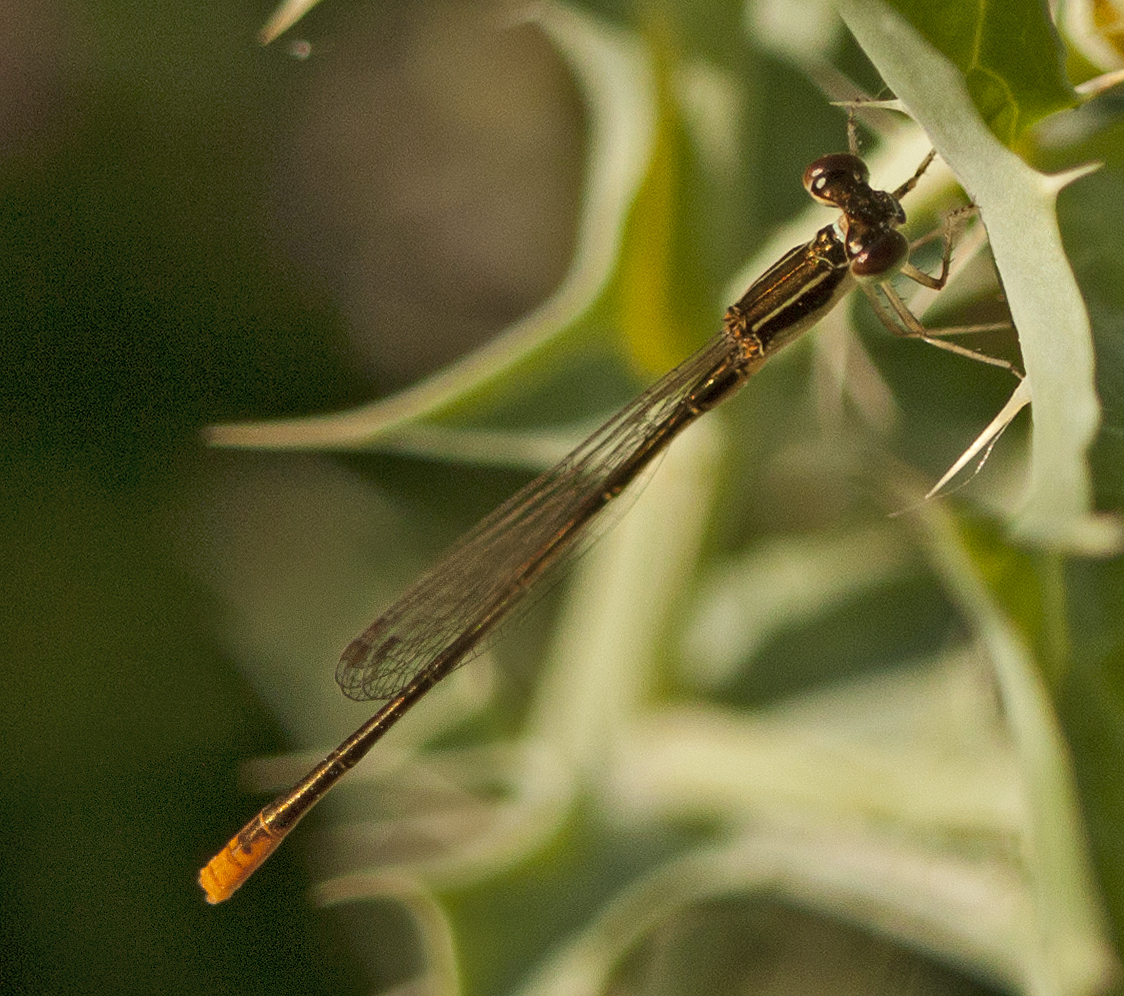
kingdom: Animalia
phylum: Arthropoda
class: Insecta
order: Odonata
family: Coenagrionidae
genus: Agriocnemis
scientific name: Agriocnemis pygmaea
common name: Pygmy wisp
